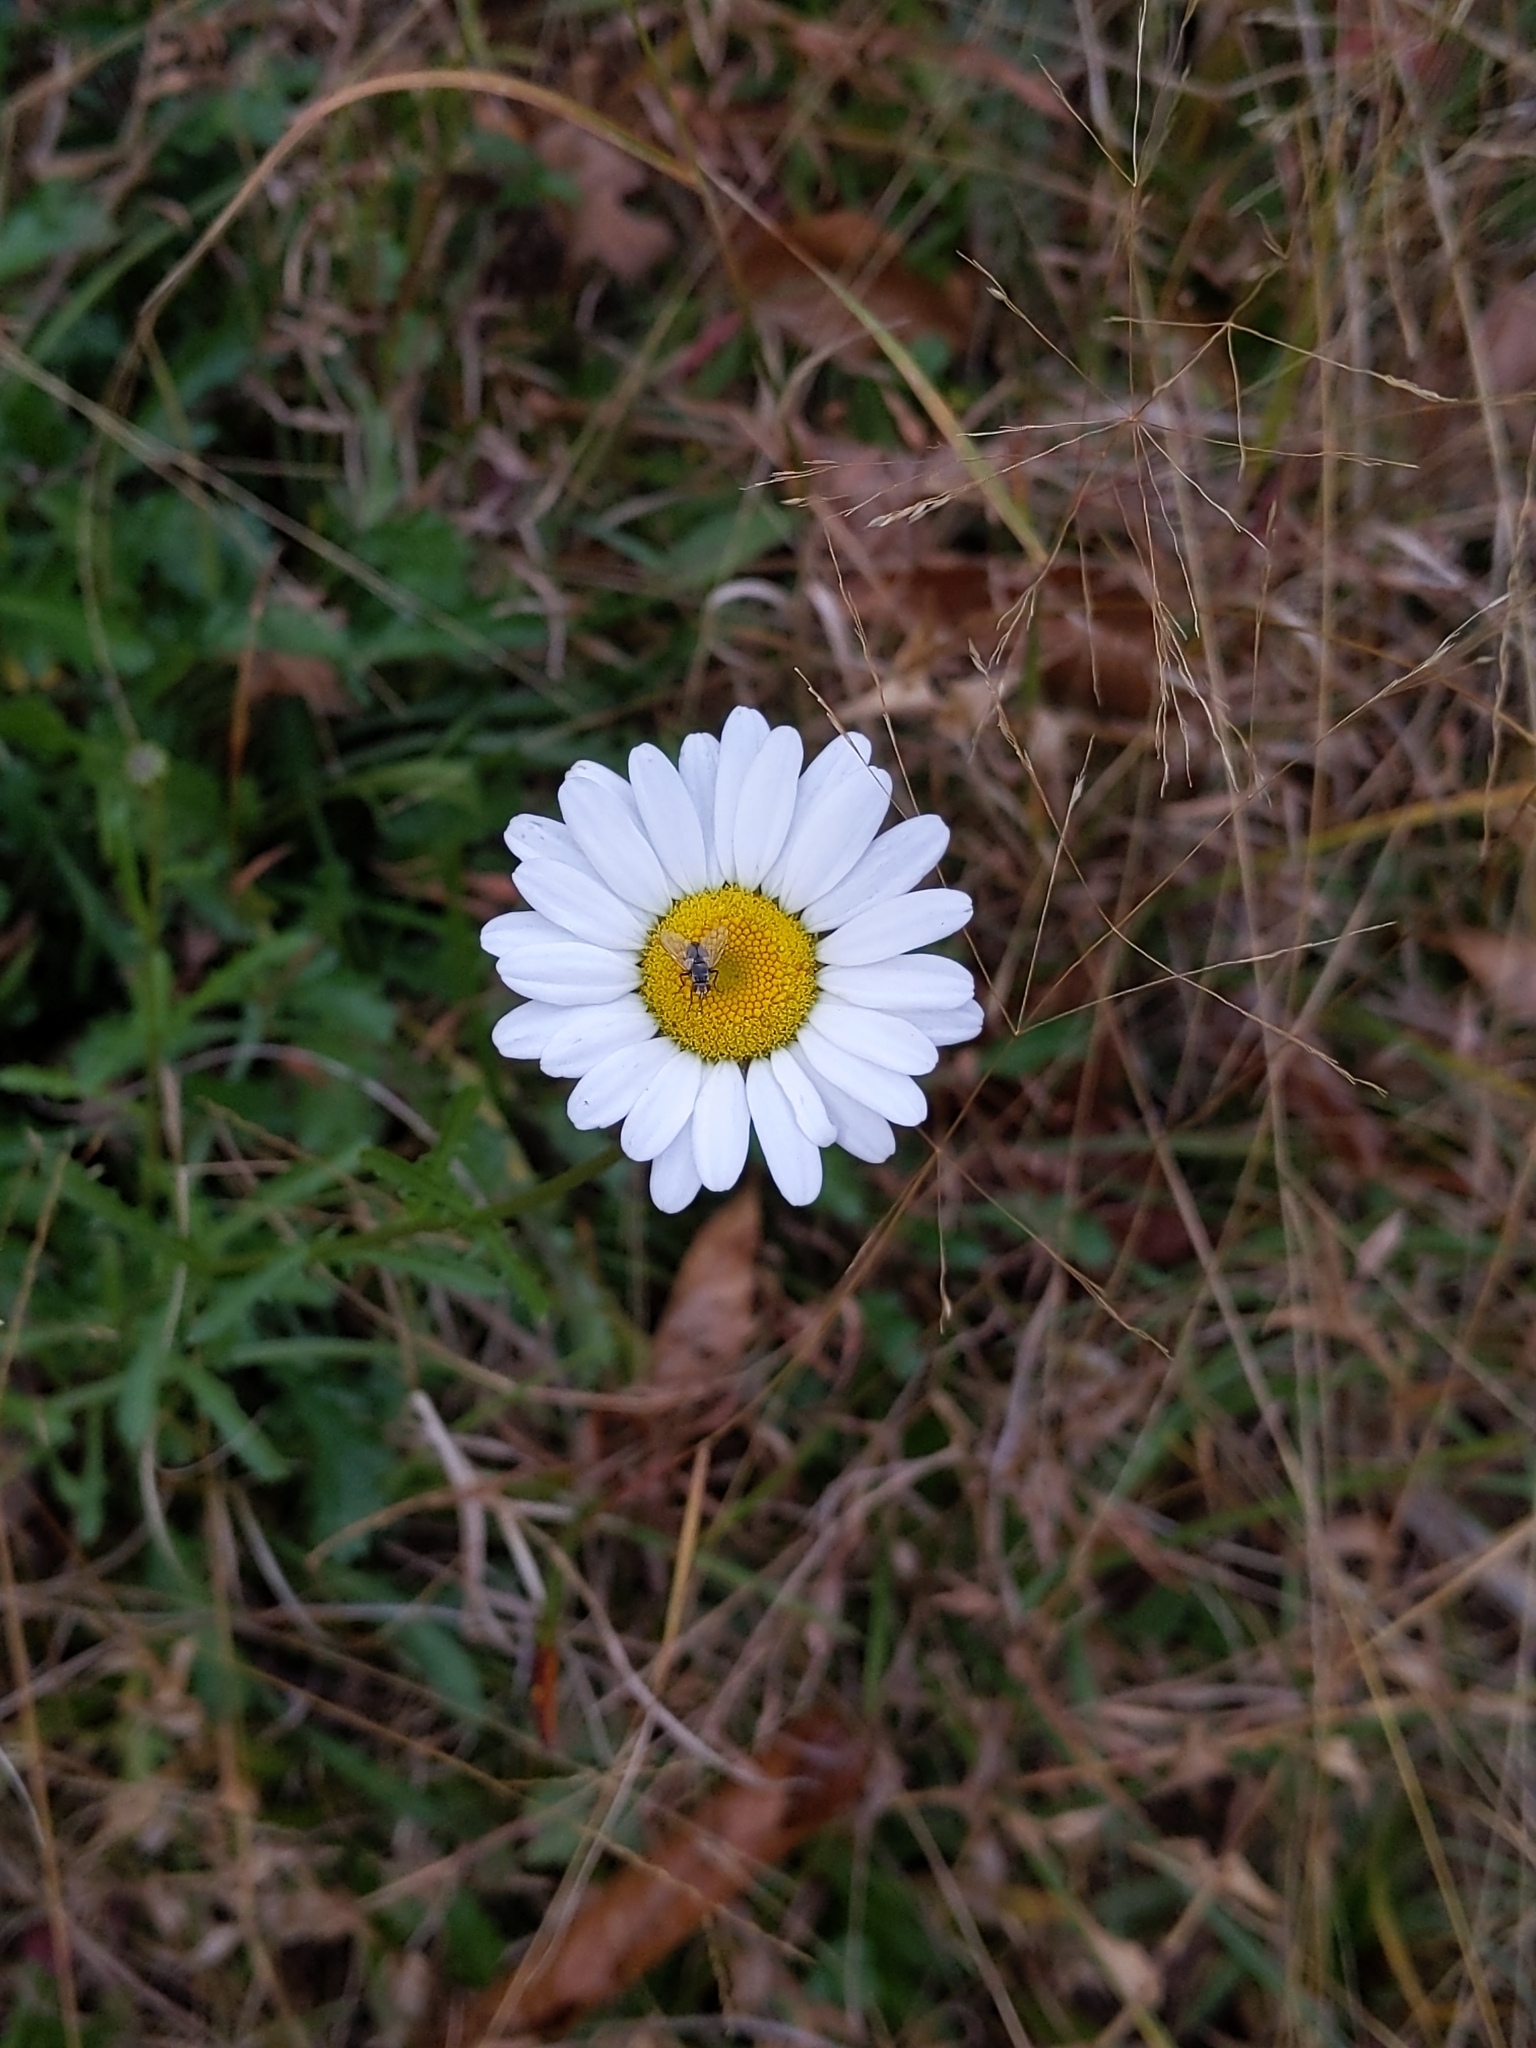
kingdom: Plantae
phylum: Tracheophyta
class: Magnoliopsida
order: Asterales
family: Asteraceae
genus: Leucanthemum
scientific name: Leucanthemum vulgare
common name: Oxeye daisy
